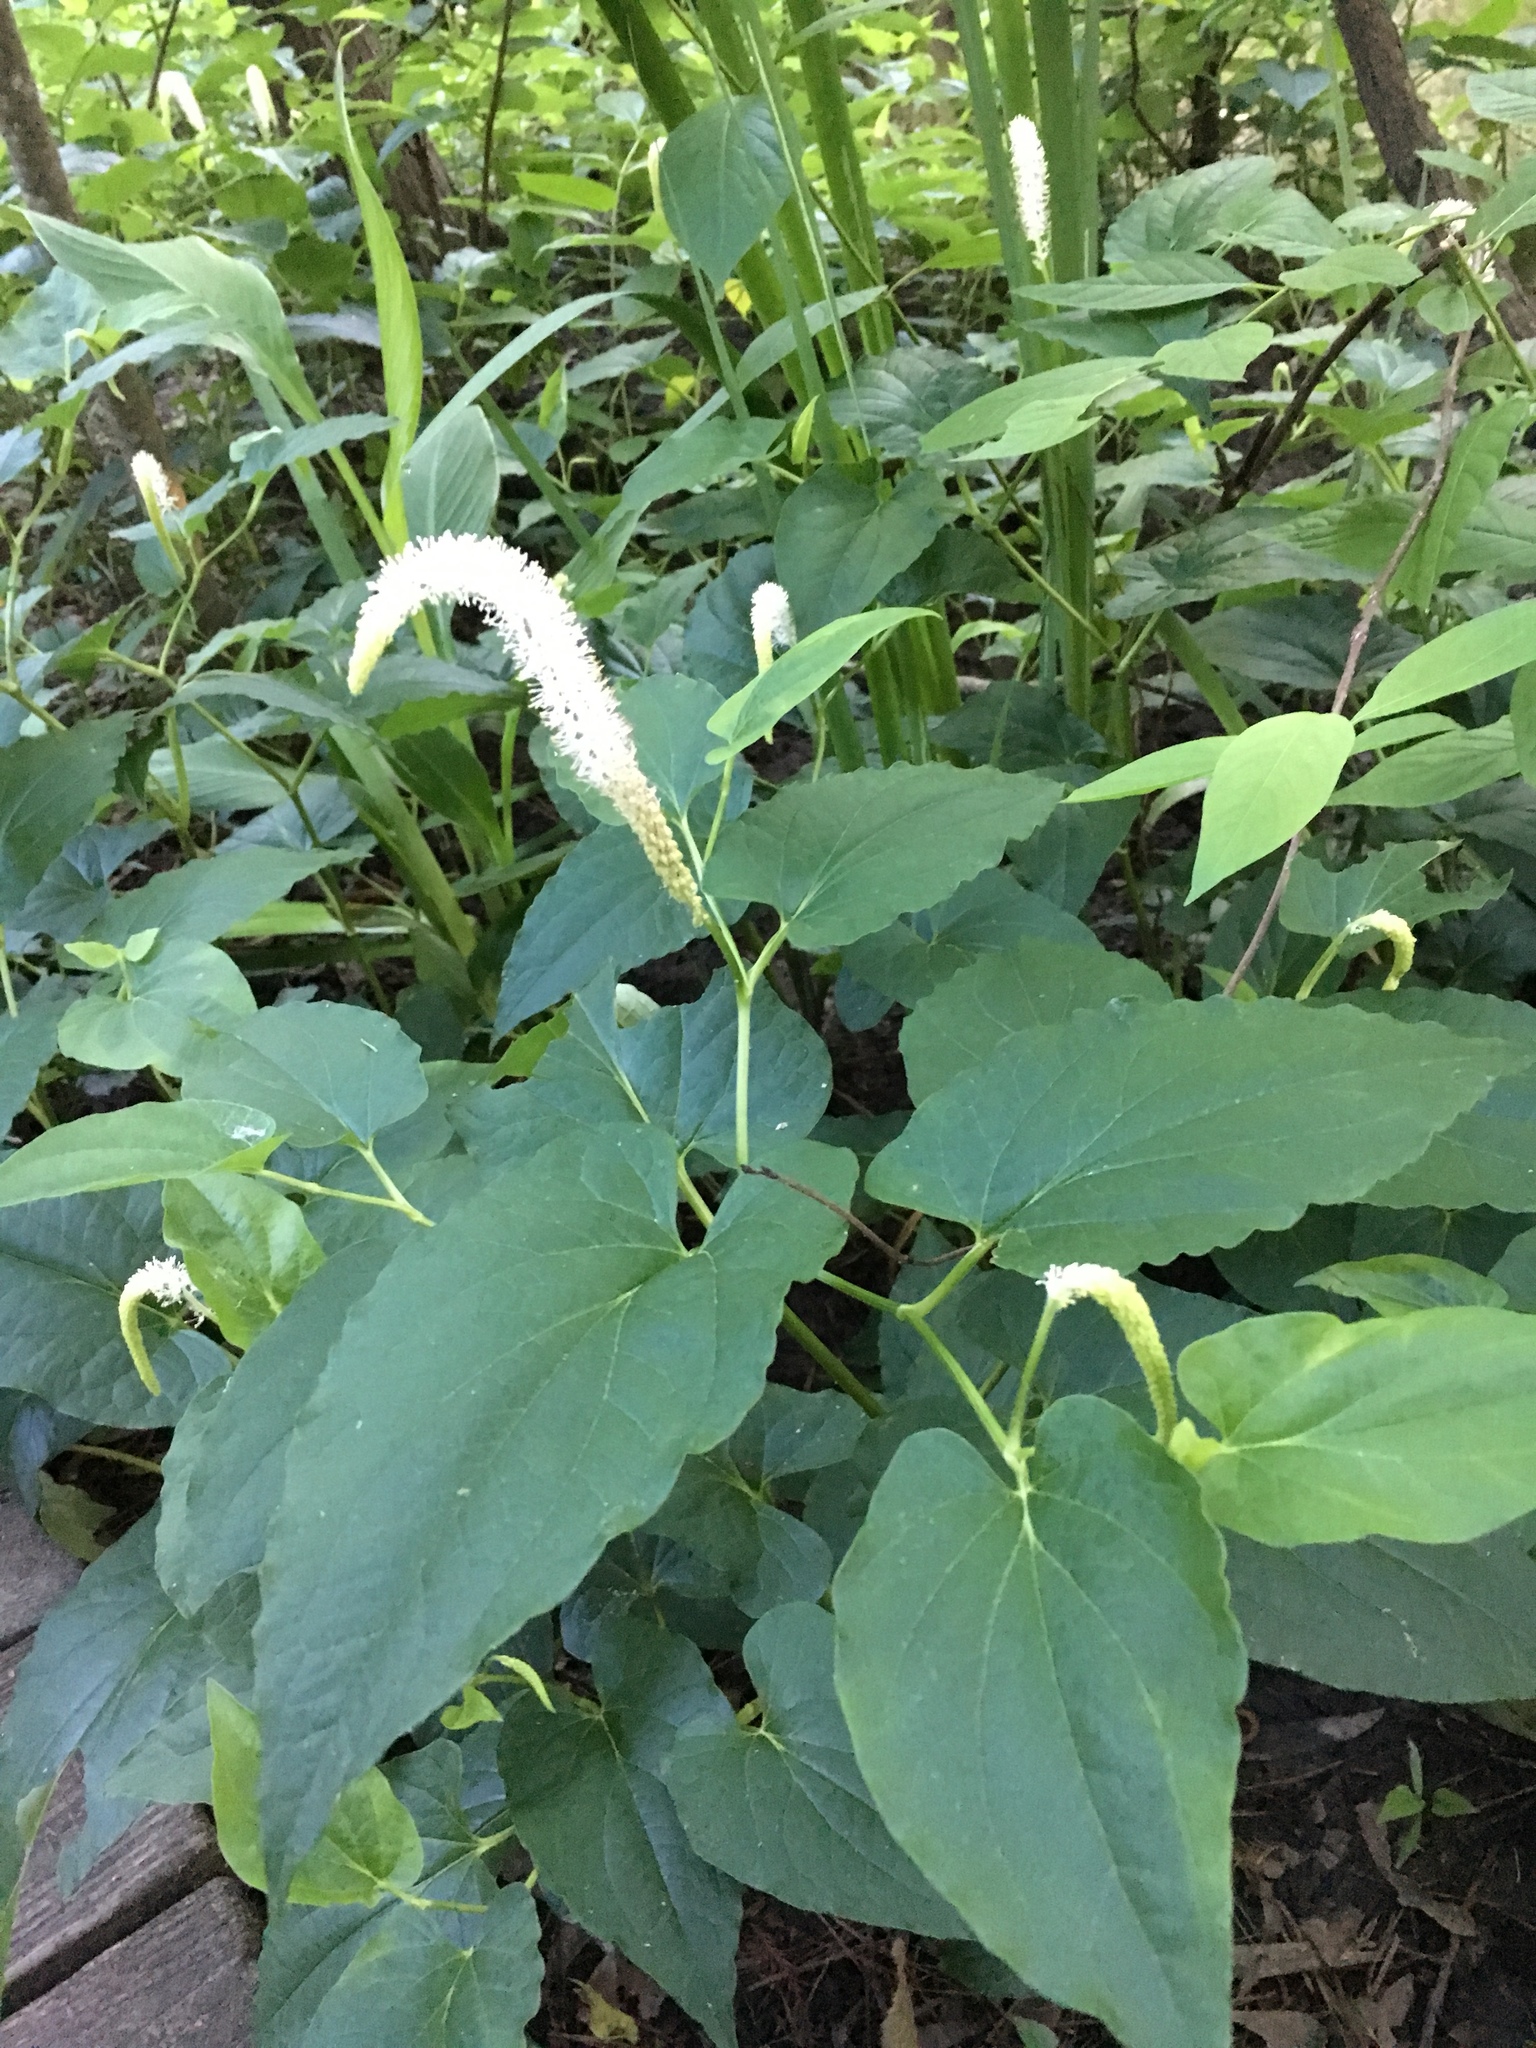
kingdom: Plantae
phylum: Tracheophyta
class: Magnoliopsida
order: Piperales
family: Saururaceae
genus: Saururus
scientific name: Saururus cernuus
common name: Lizard's-tail
